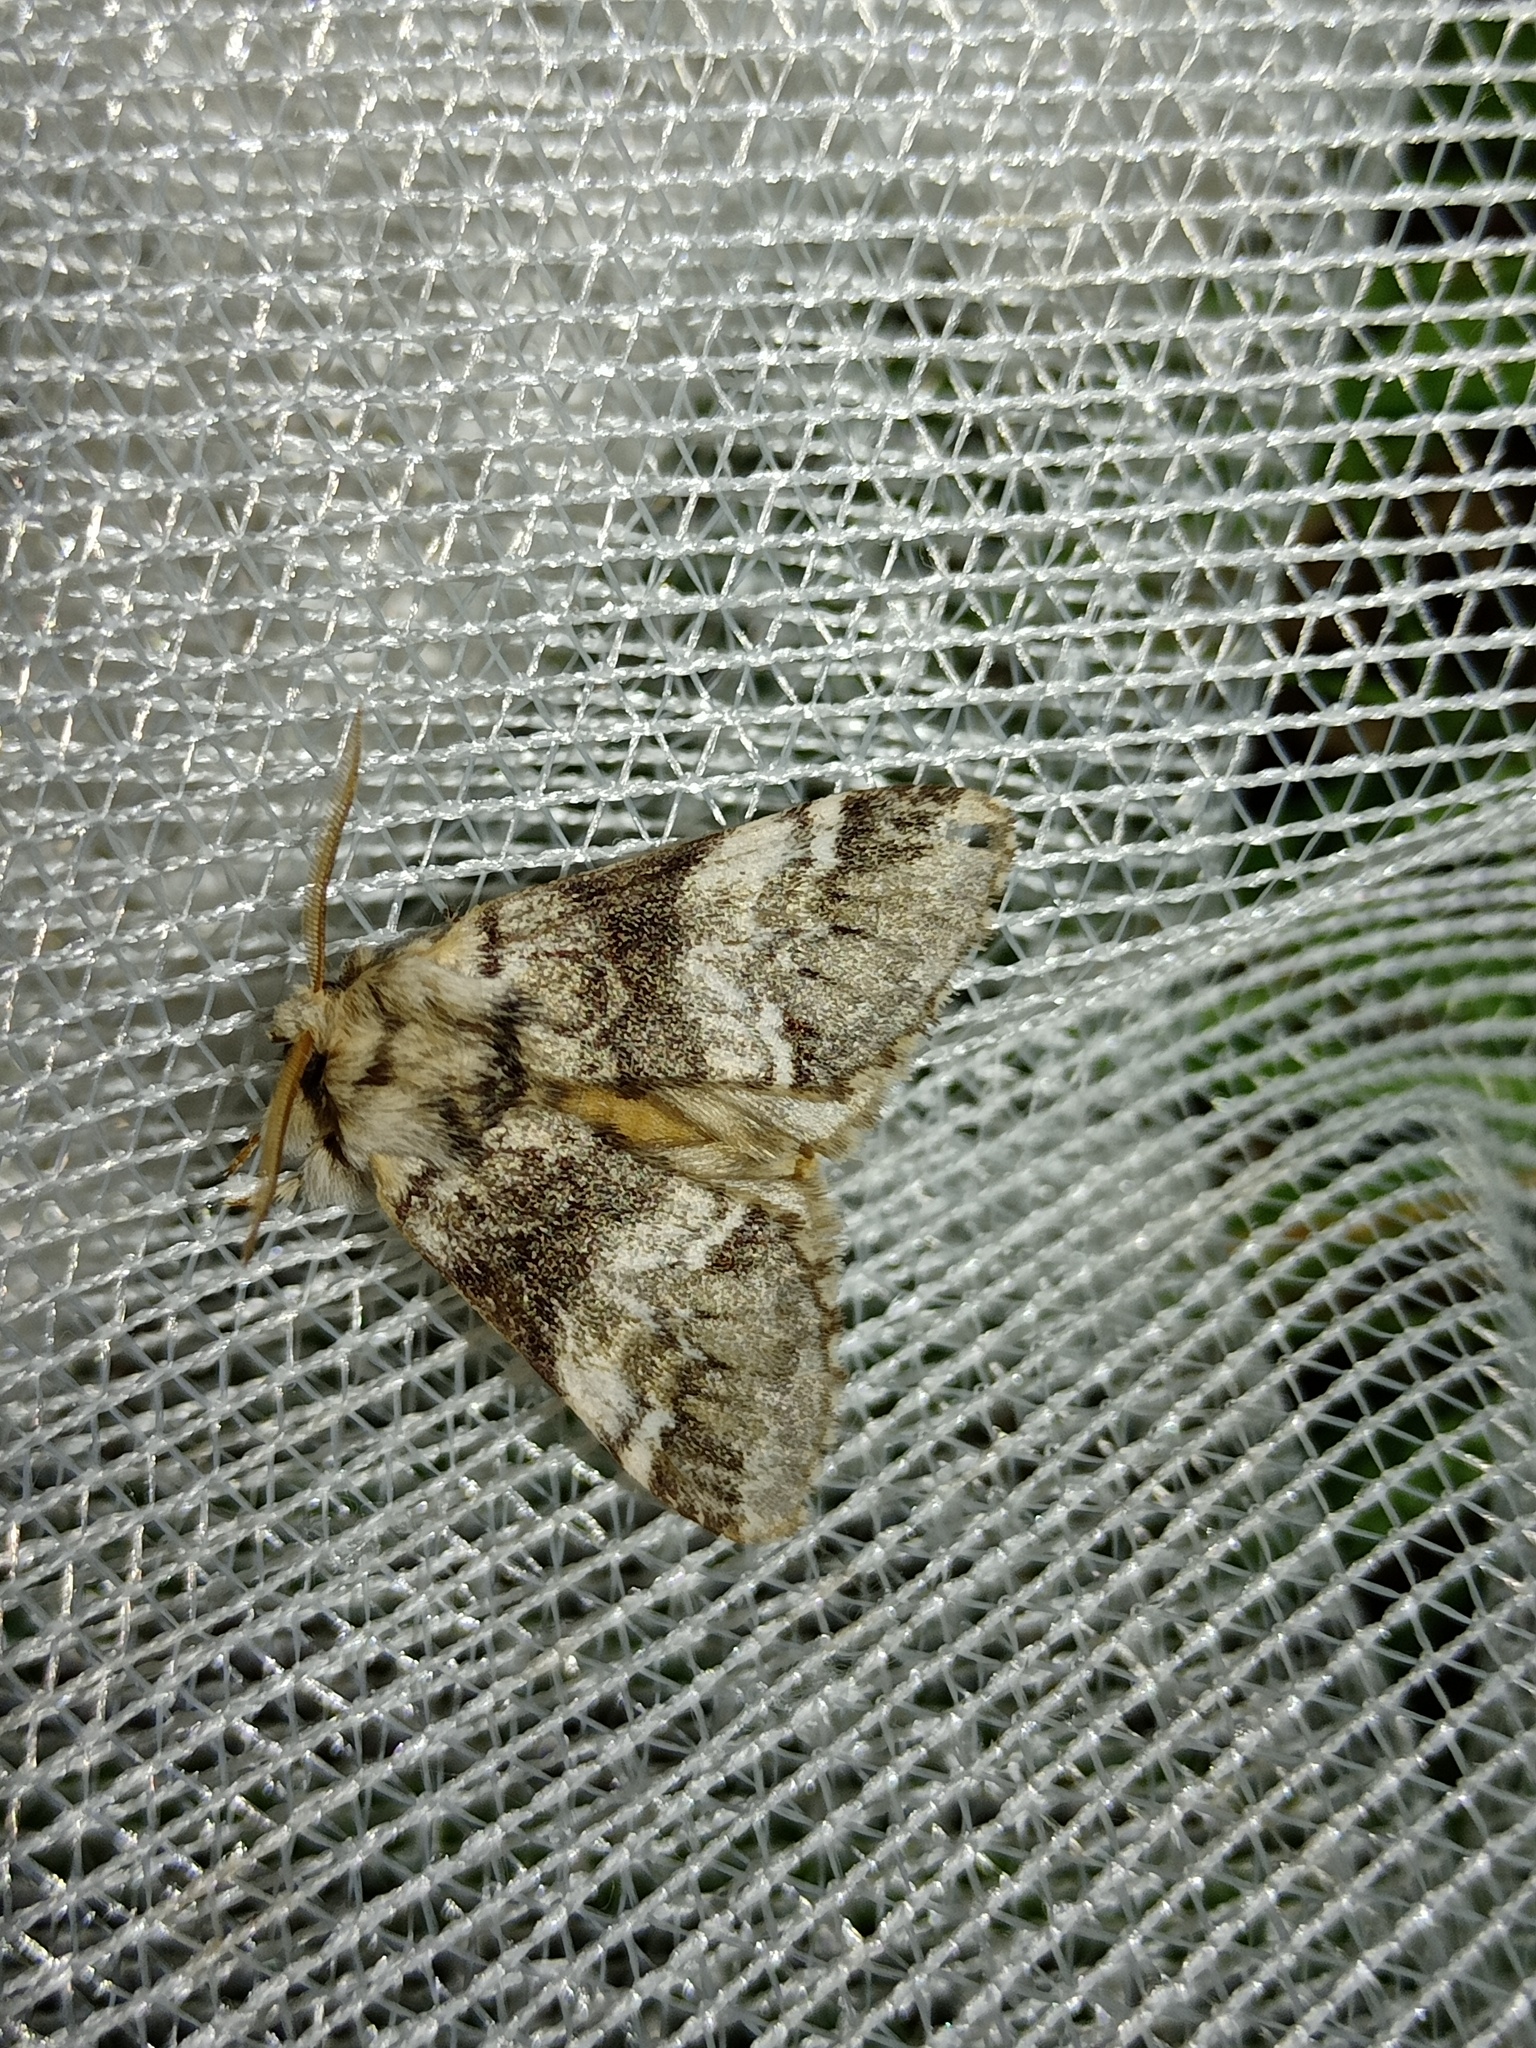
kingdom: Animalia
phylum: Arthropoda
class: Insecta
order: Lepidoptera
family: Notodontidae
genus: Drymonia
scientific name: Drymonia dodonaea
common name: Marbled brown
